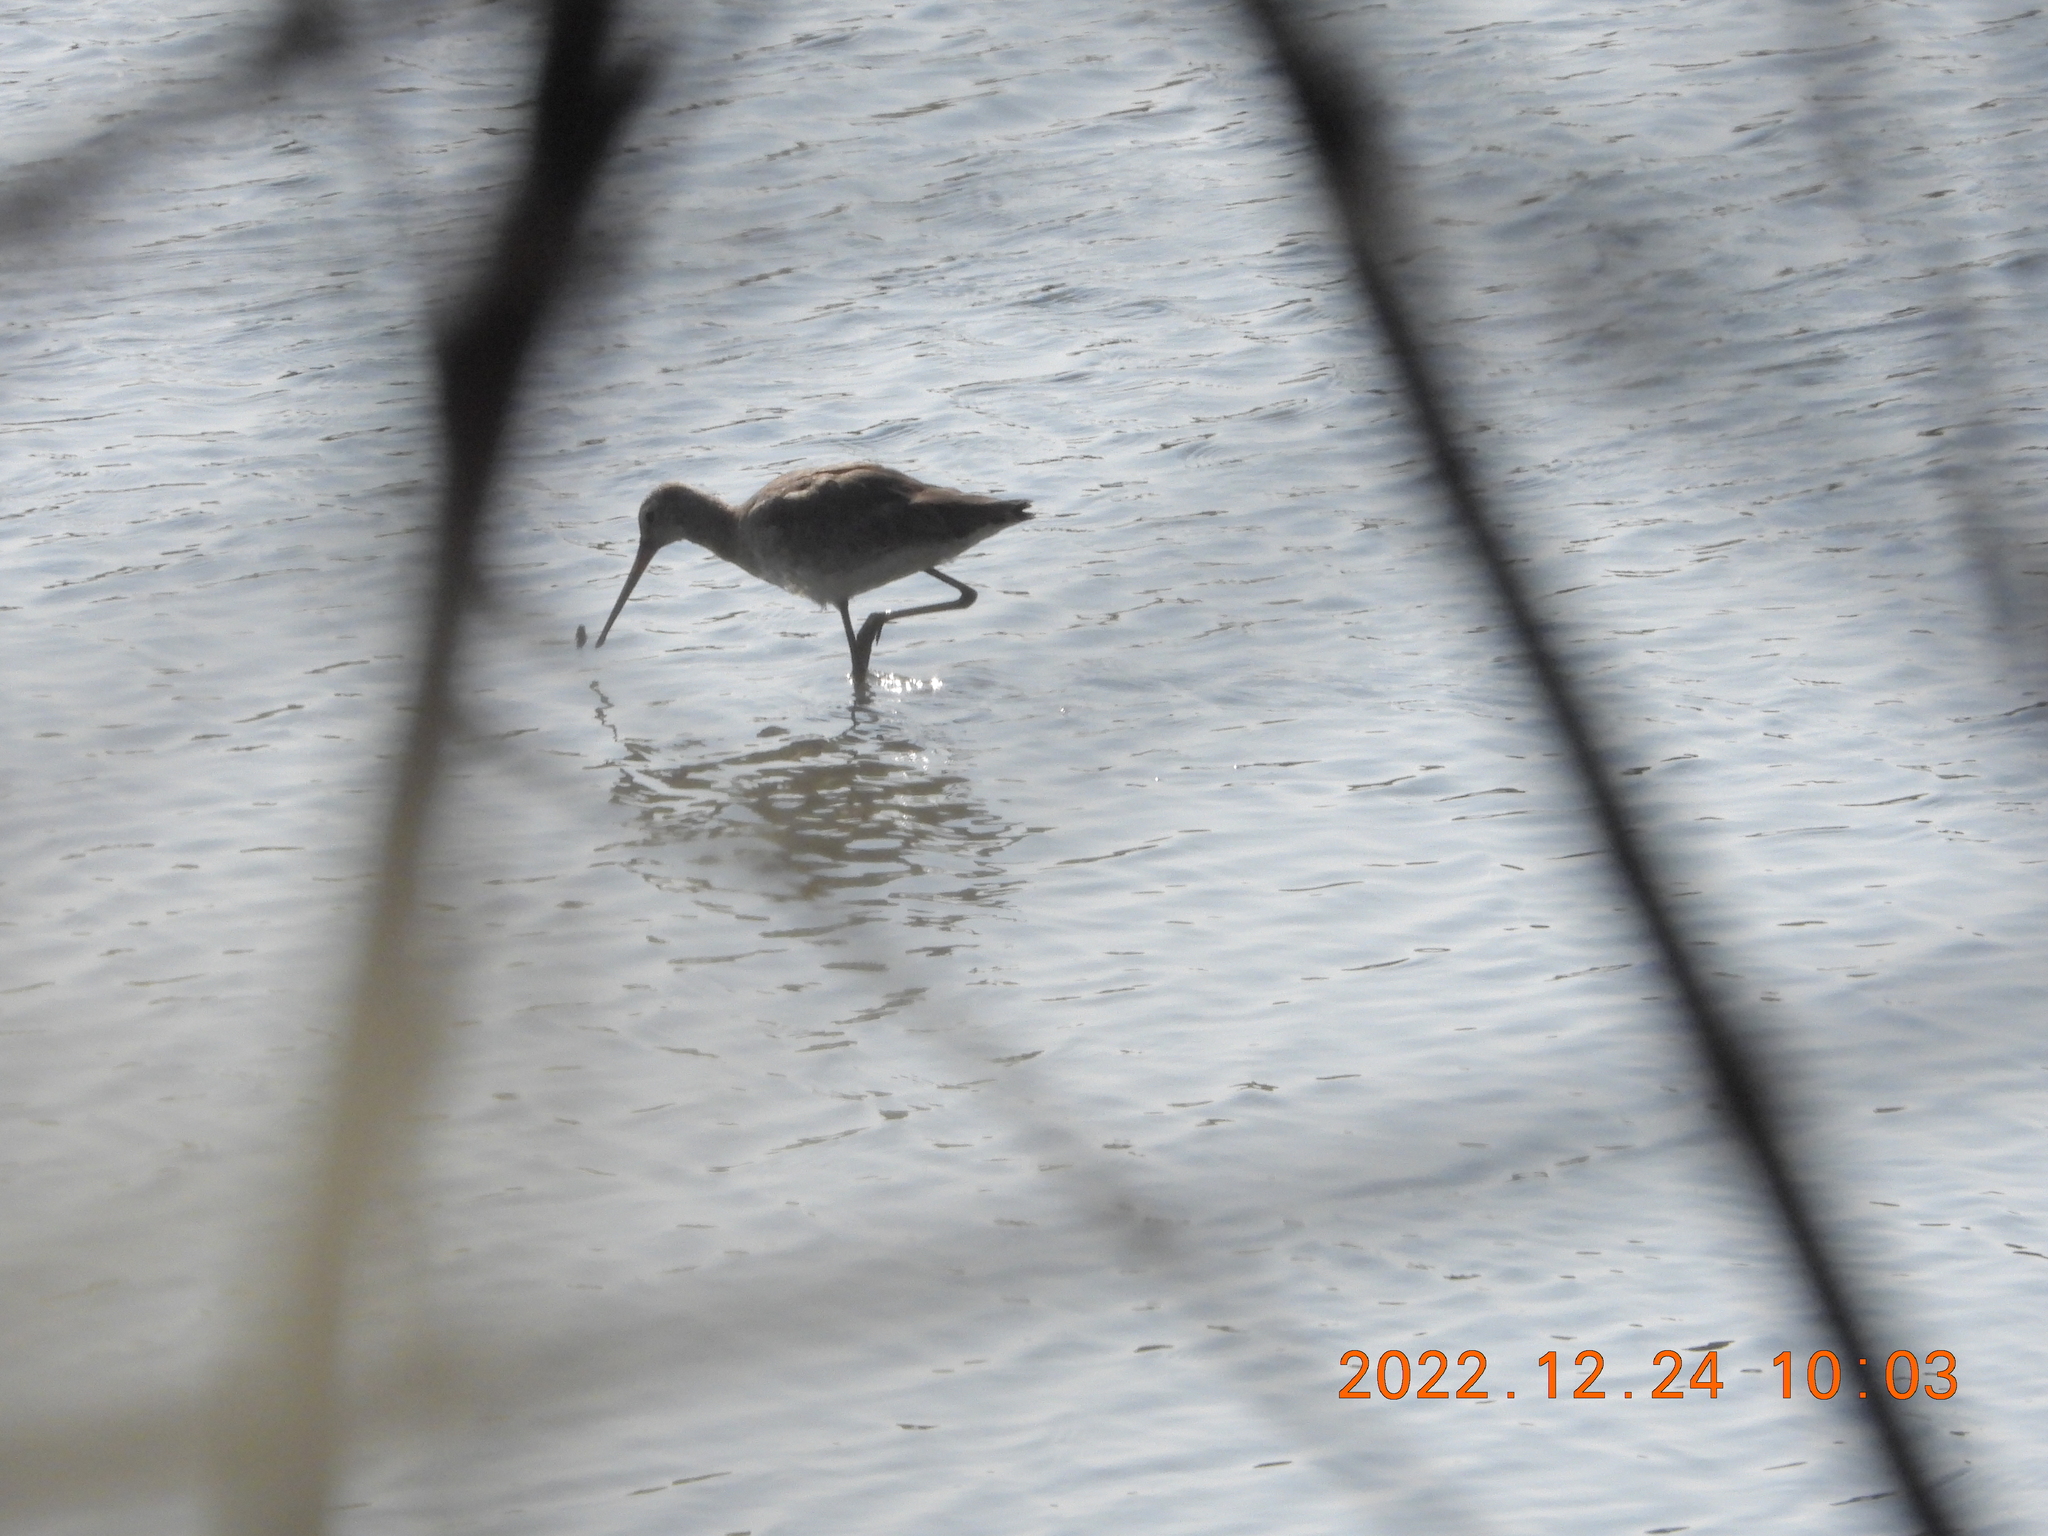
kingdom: Animalia
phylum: Chordata
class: Aves
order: Charadriiformes
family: Scolopacidae
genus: Limosa
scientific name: Limosa limosa
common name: Black-tailed godwit
